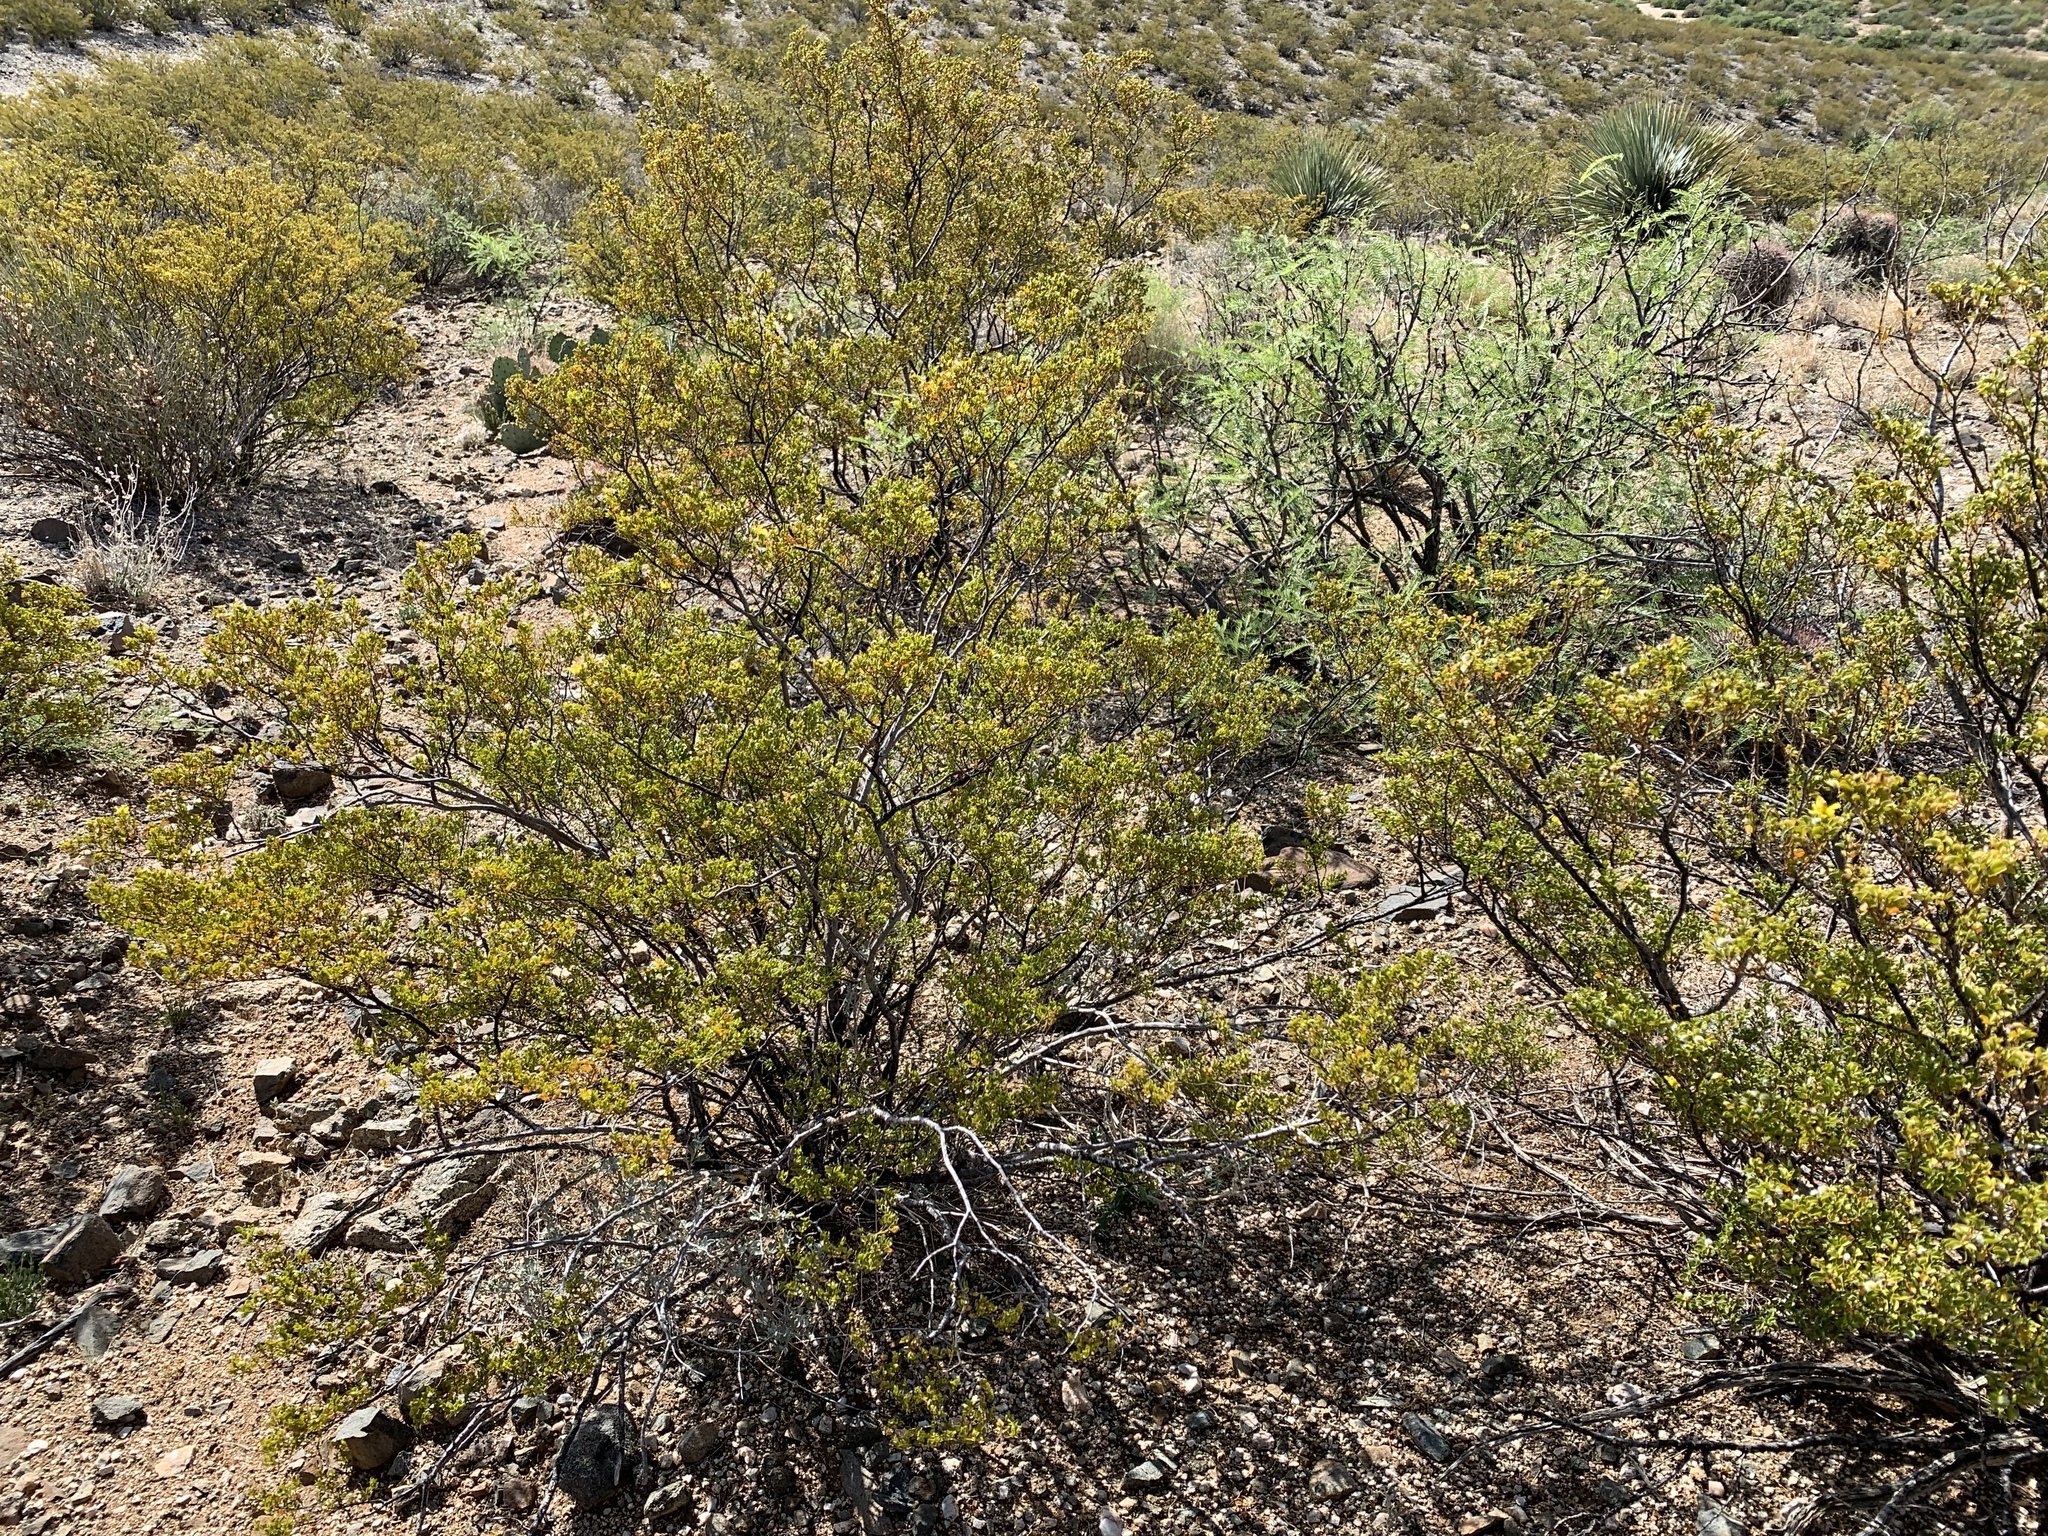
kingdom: Plantae
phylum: Tracheophyta
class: Magnoliopsida
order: Zygophyllales
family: Zygophyllaceae
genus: Larrea
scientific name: Larrea tridentata
